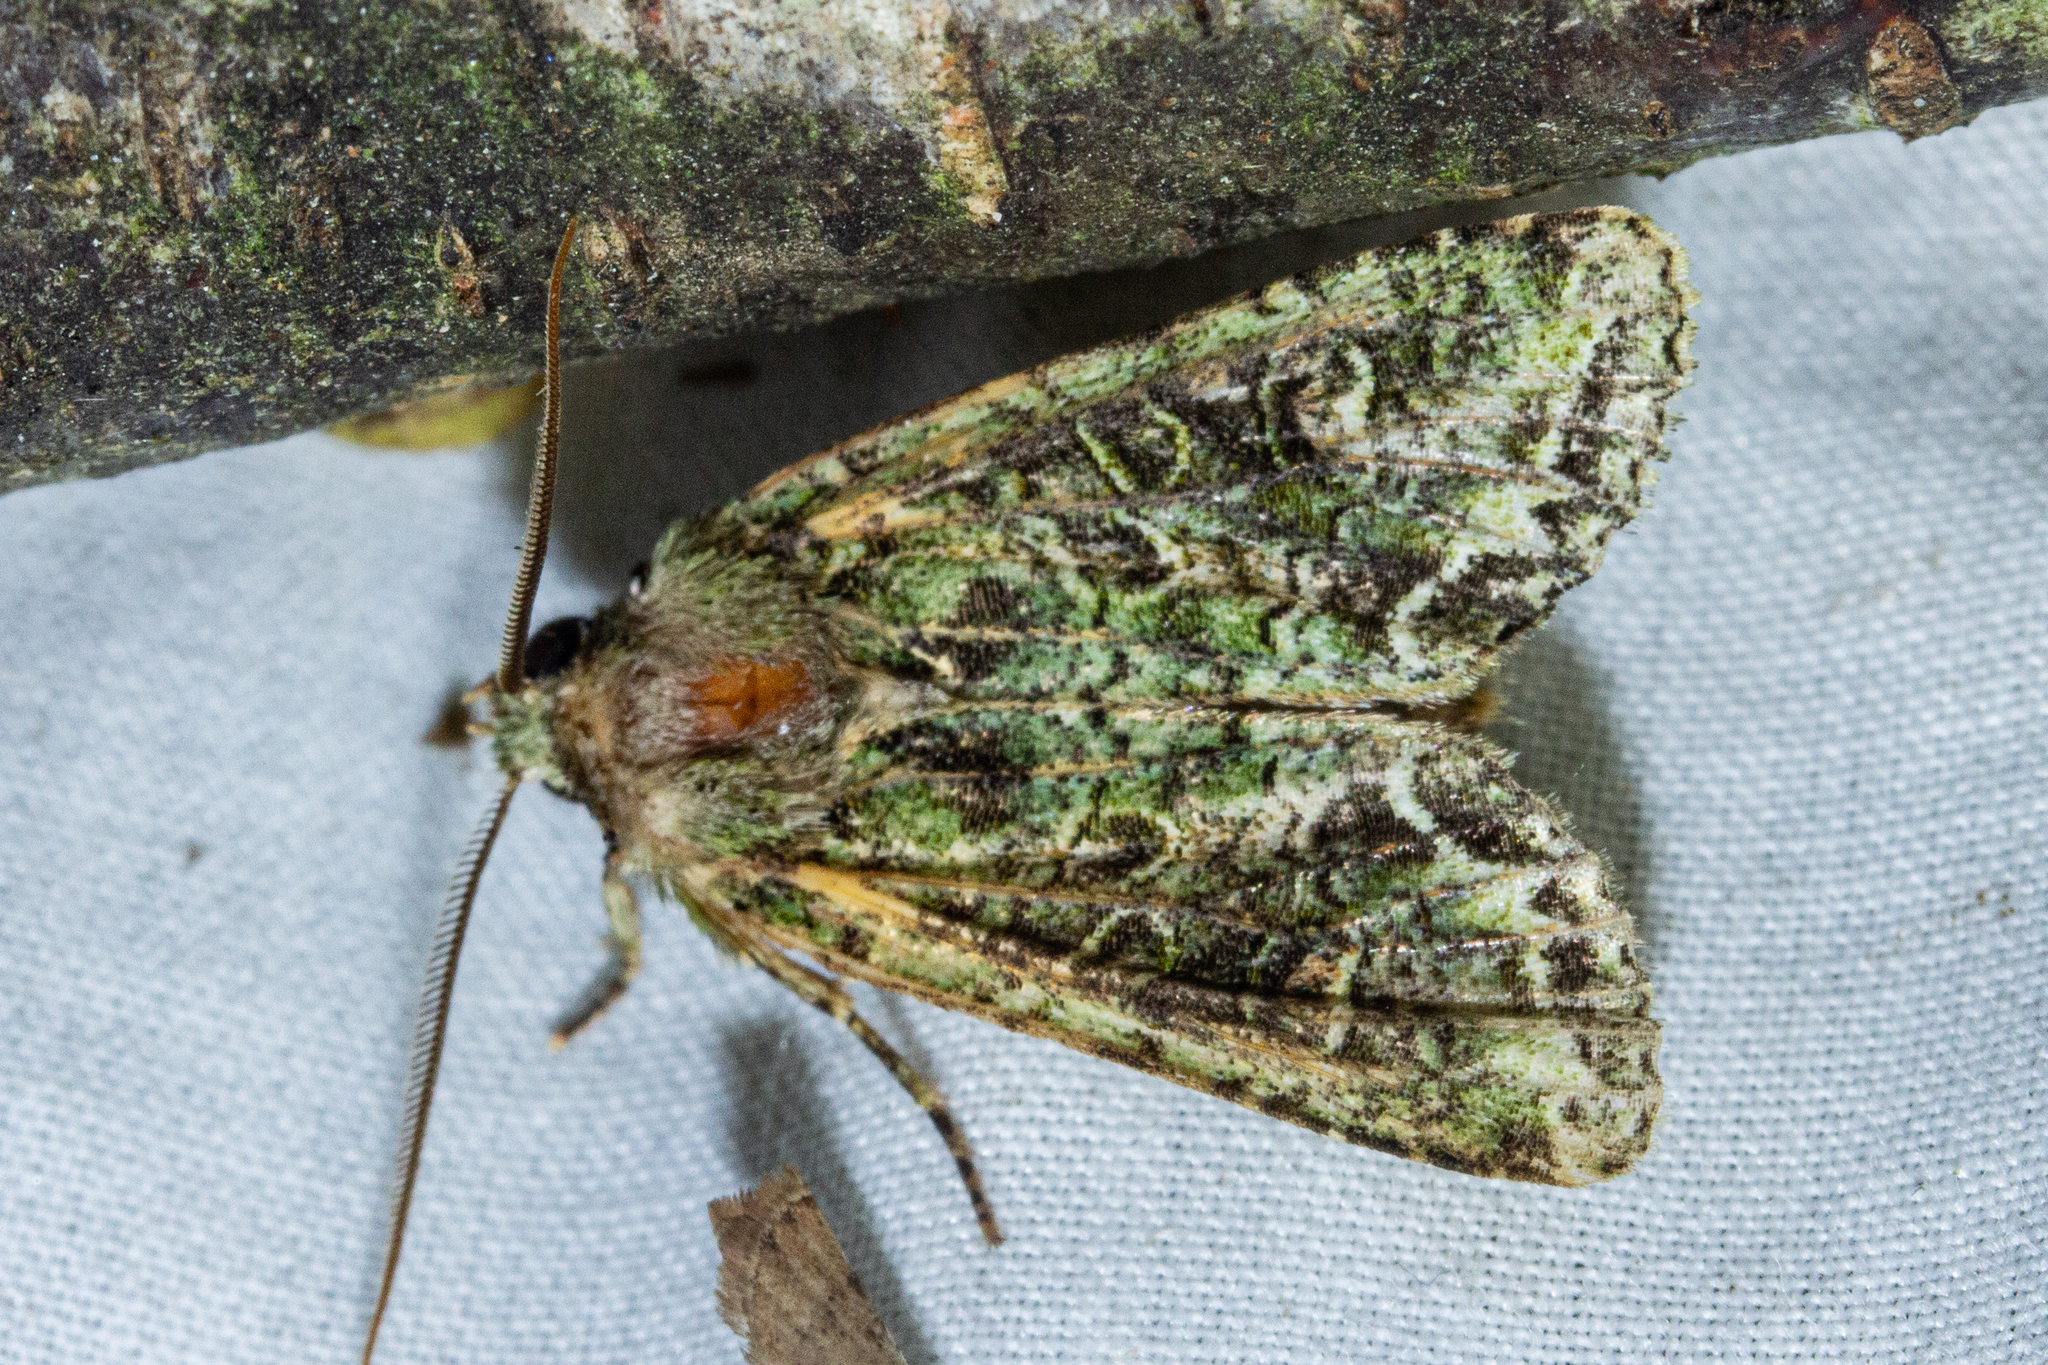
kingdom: Animalia
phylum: Arthropoda
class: Insecta
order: Lepidoptera
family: Noctuidae
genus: Ichneutica
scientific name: Ichneutica
